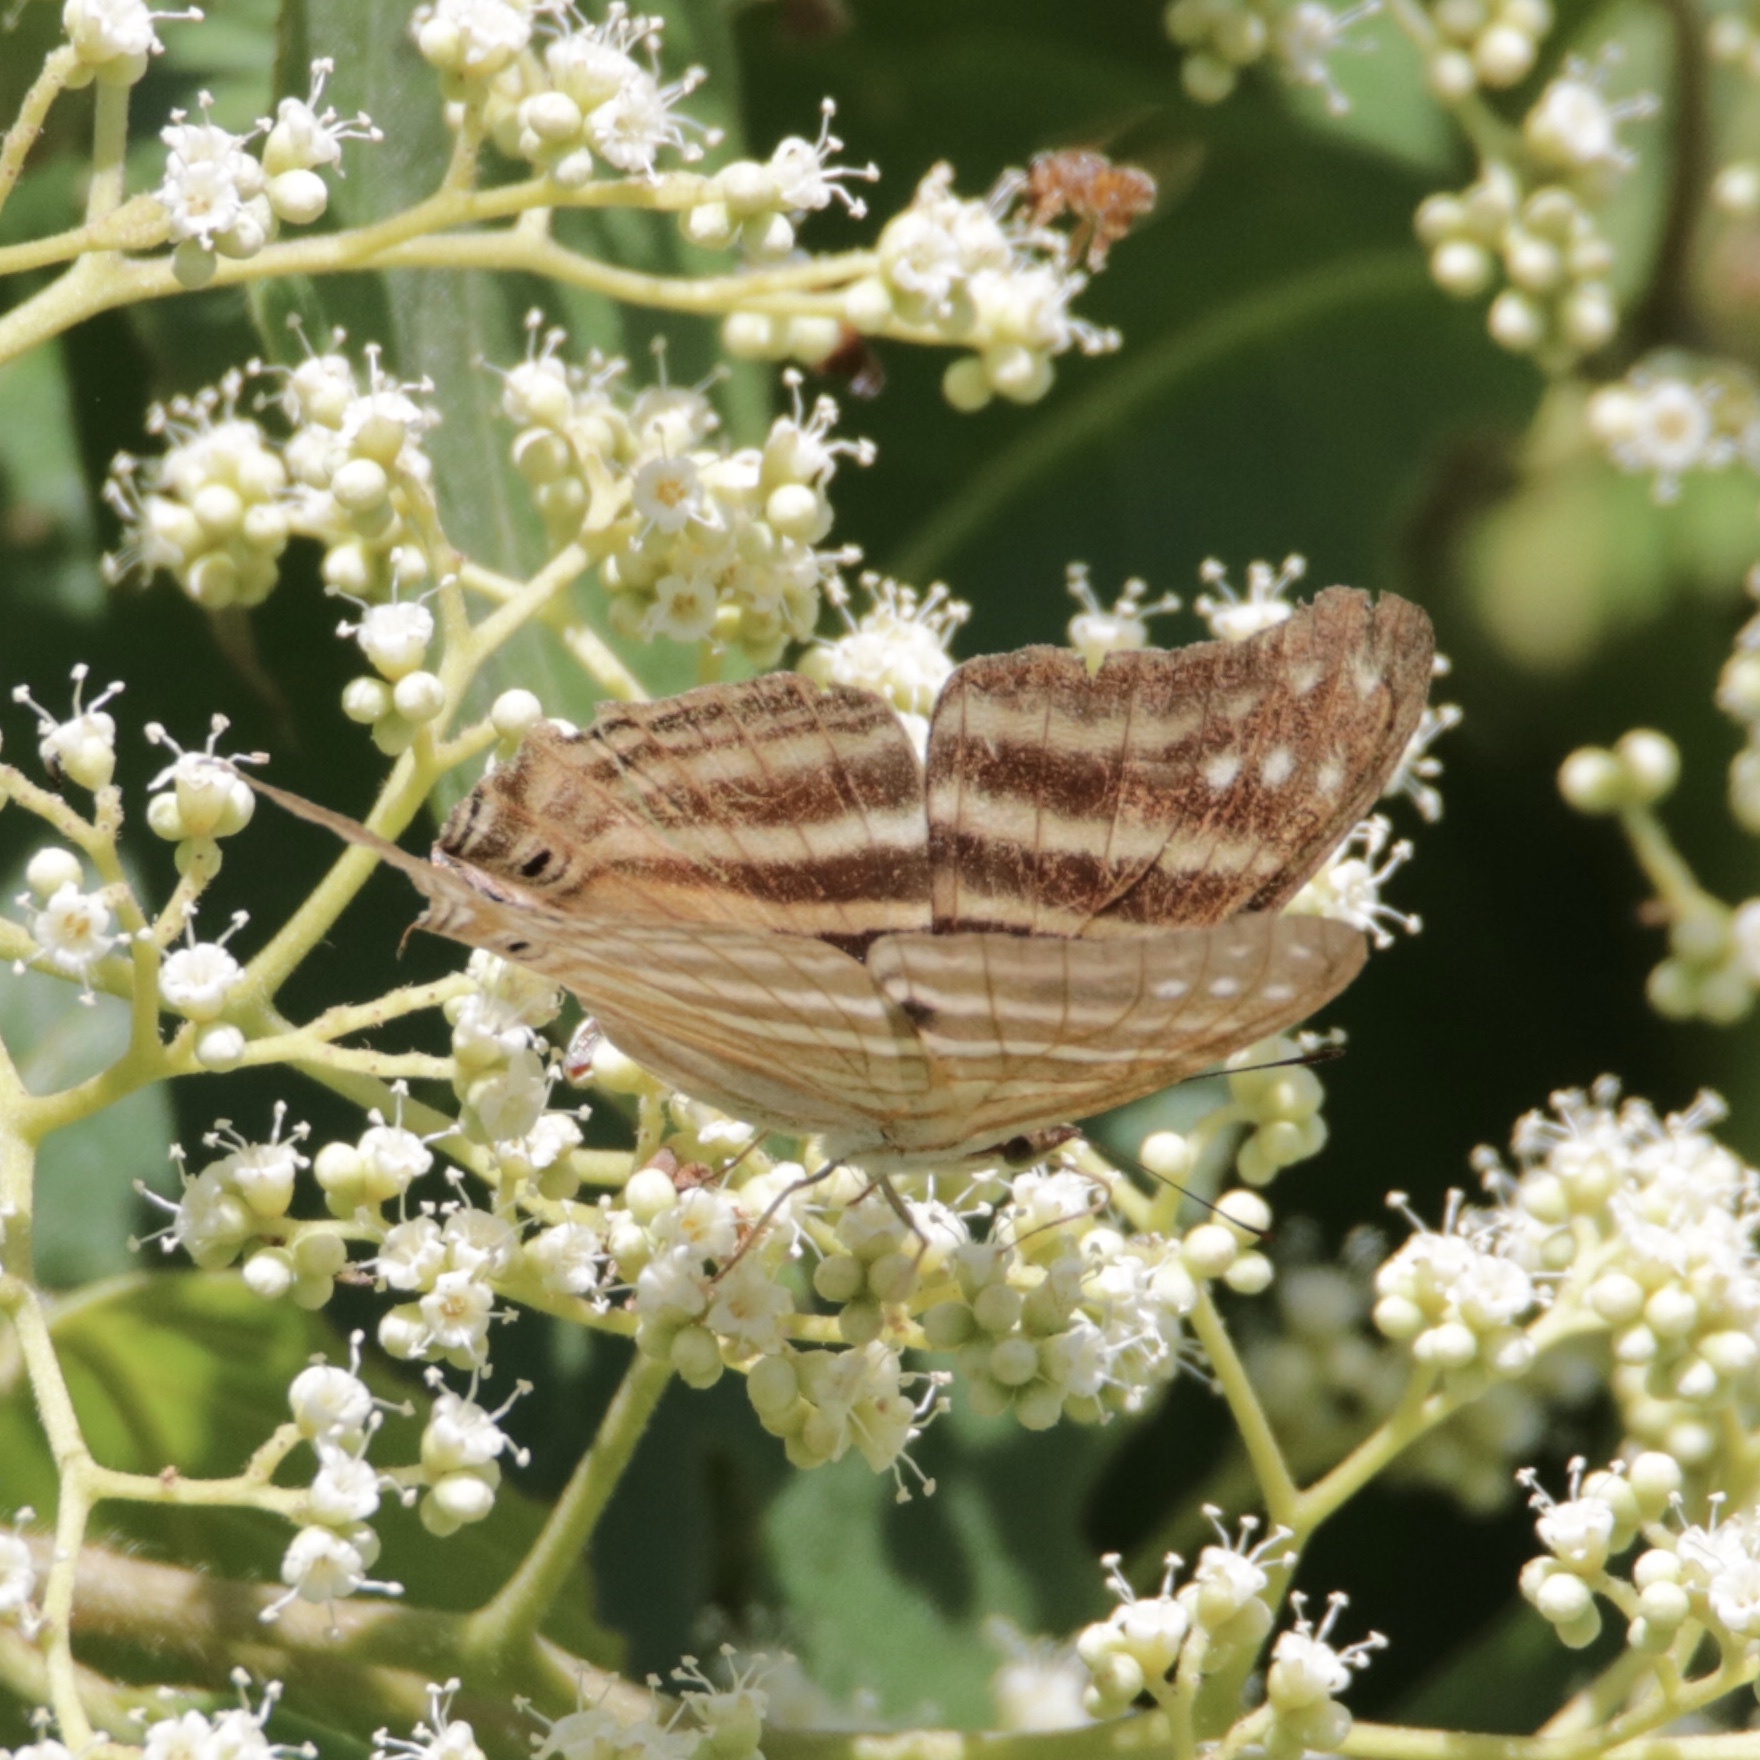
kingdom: Animalia
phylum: Arthropoda
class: Insecta
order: Lepidoptera
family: Nymphalidae
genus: Marpesia
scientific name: Marpesia chiron
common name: Many-banded daggerwing
